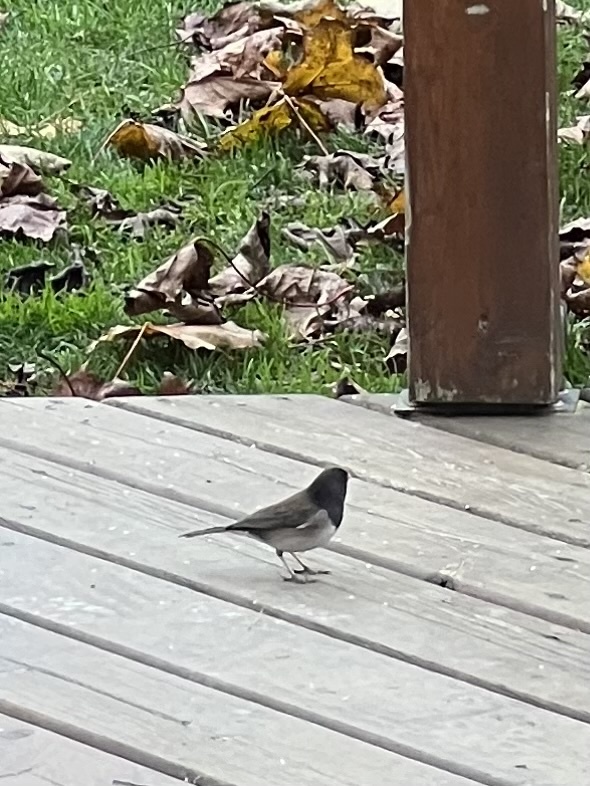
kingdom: Animalia
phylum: Chordata
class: Aves
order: Passeriformes
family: Passerellidae
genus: Junco
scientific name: Junco hyemalis
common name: Dark-eyed junco
